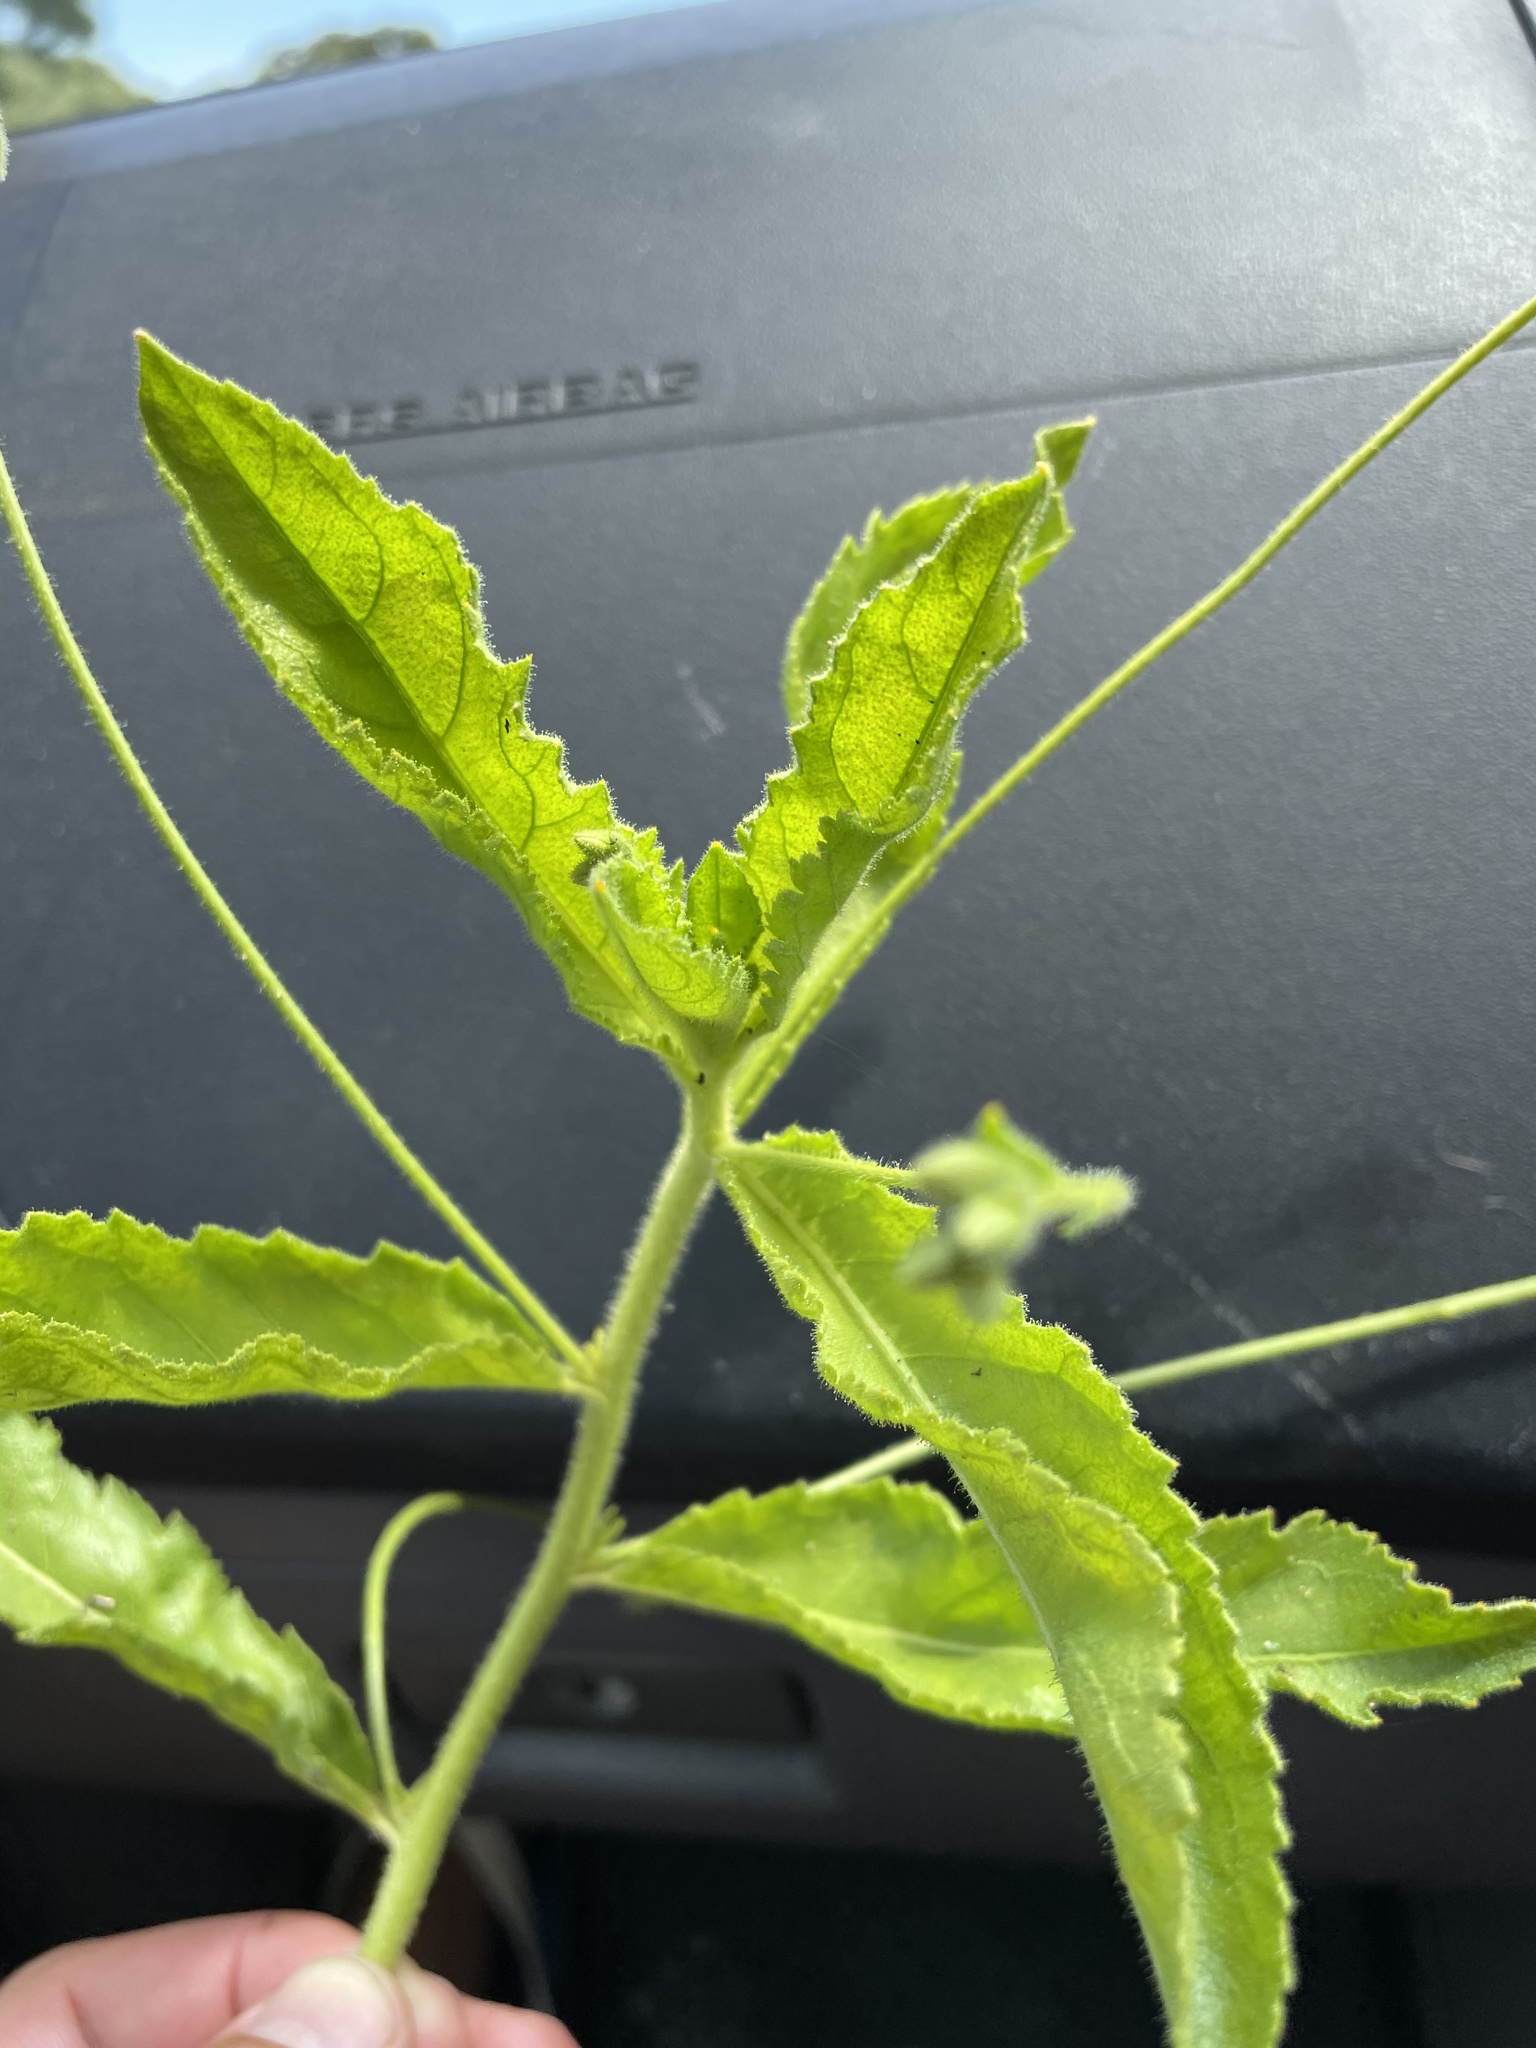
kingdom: Plantae
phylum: Tracheophyta
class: Magnoliopsida
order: Malpighiales
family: Turneraceae
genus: Tricliceras
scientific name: Tricliceras longepedunculatum
